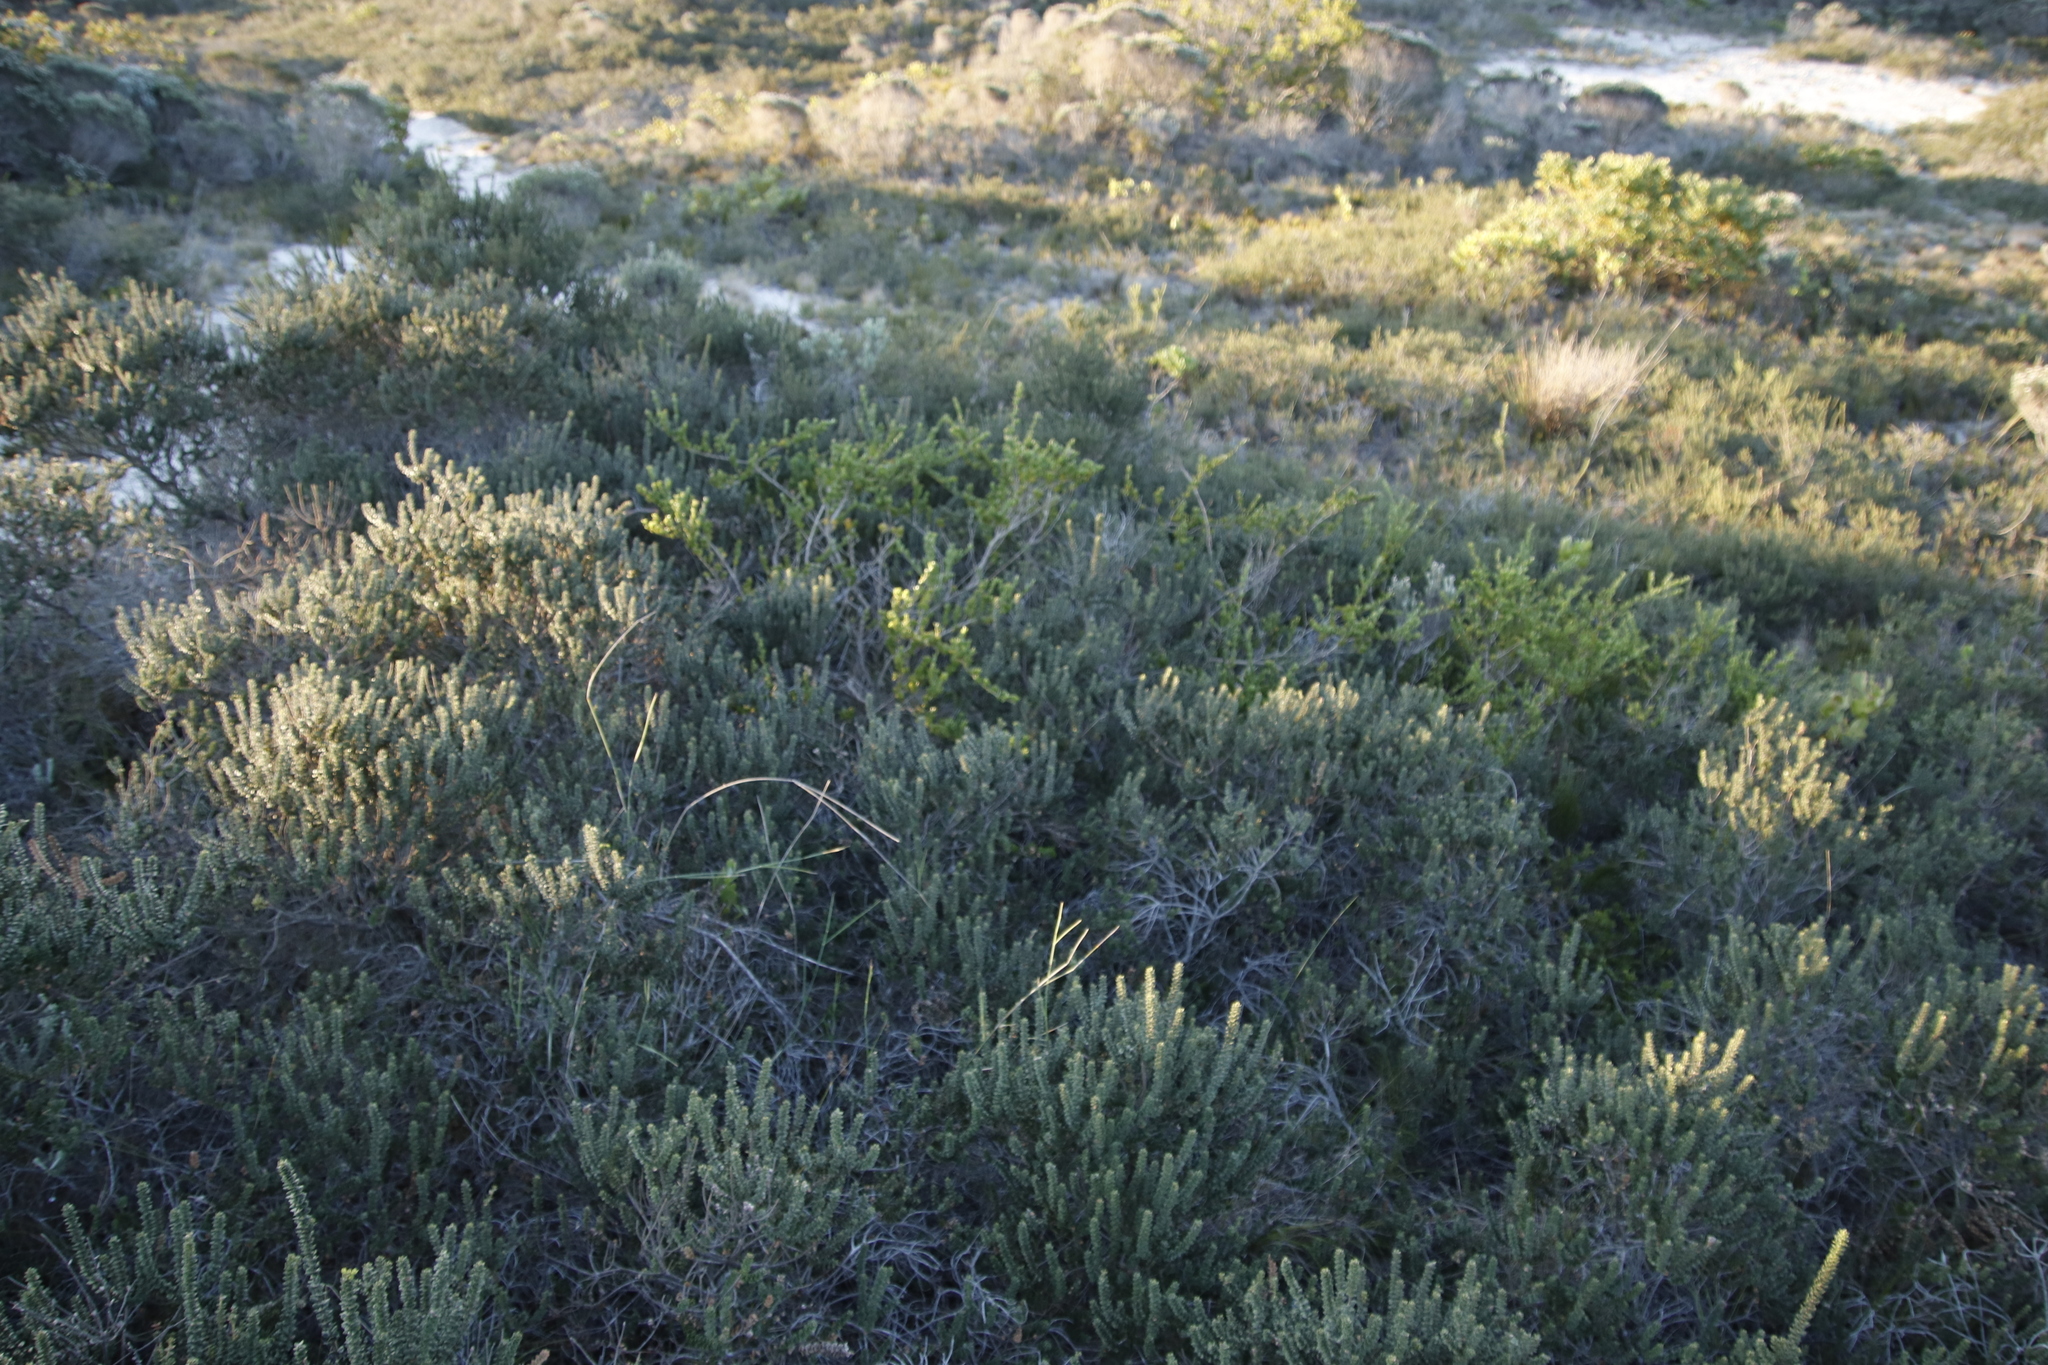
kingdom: Plantae
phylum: Tracheophyta
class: Magnoliopsida
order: Fagales
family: Myricaceae
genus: Morella
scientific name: Morella cordifolia
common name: Waxberry
